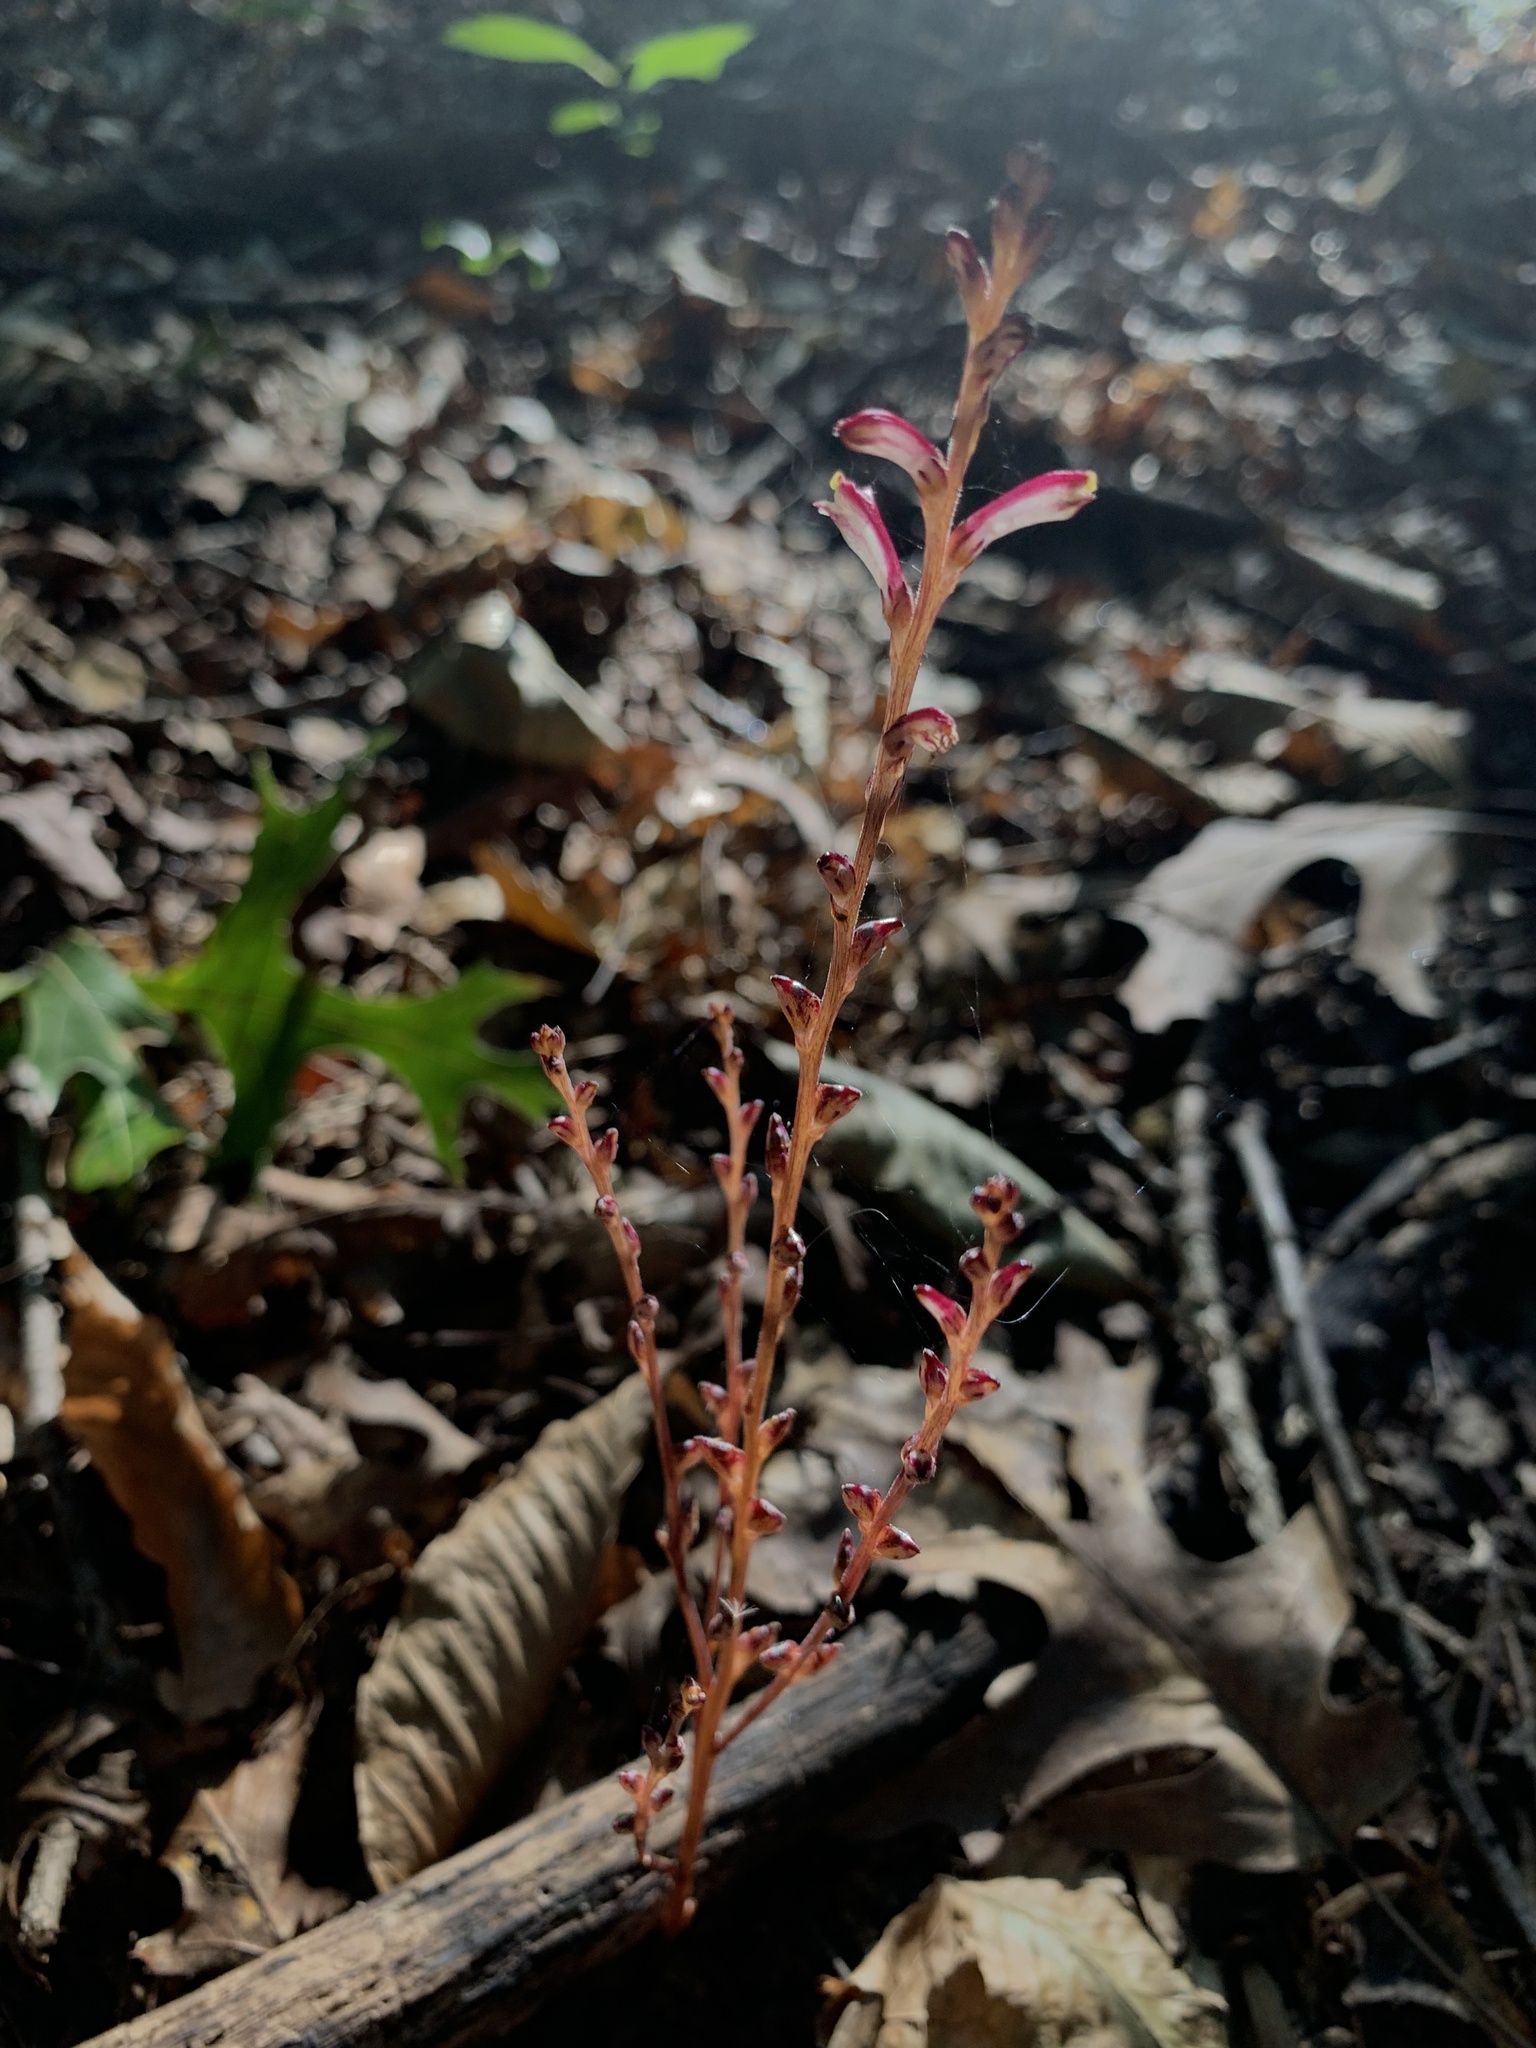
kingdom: Plantae
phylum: Tracheophyta
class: Magnoliopsida
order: Lamiales
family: Orobanchaceae
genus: Epifagus
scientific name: Epifagus virginiana
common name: Beechdrops
